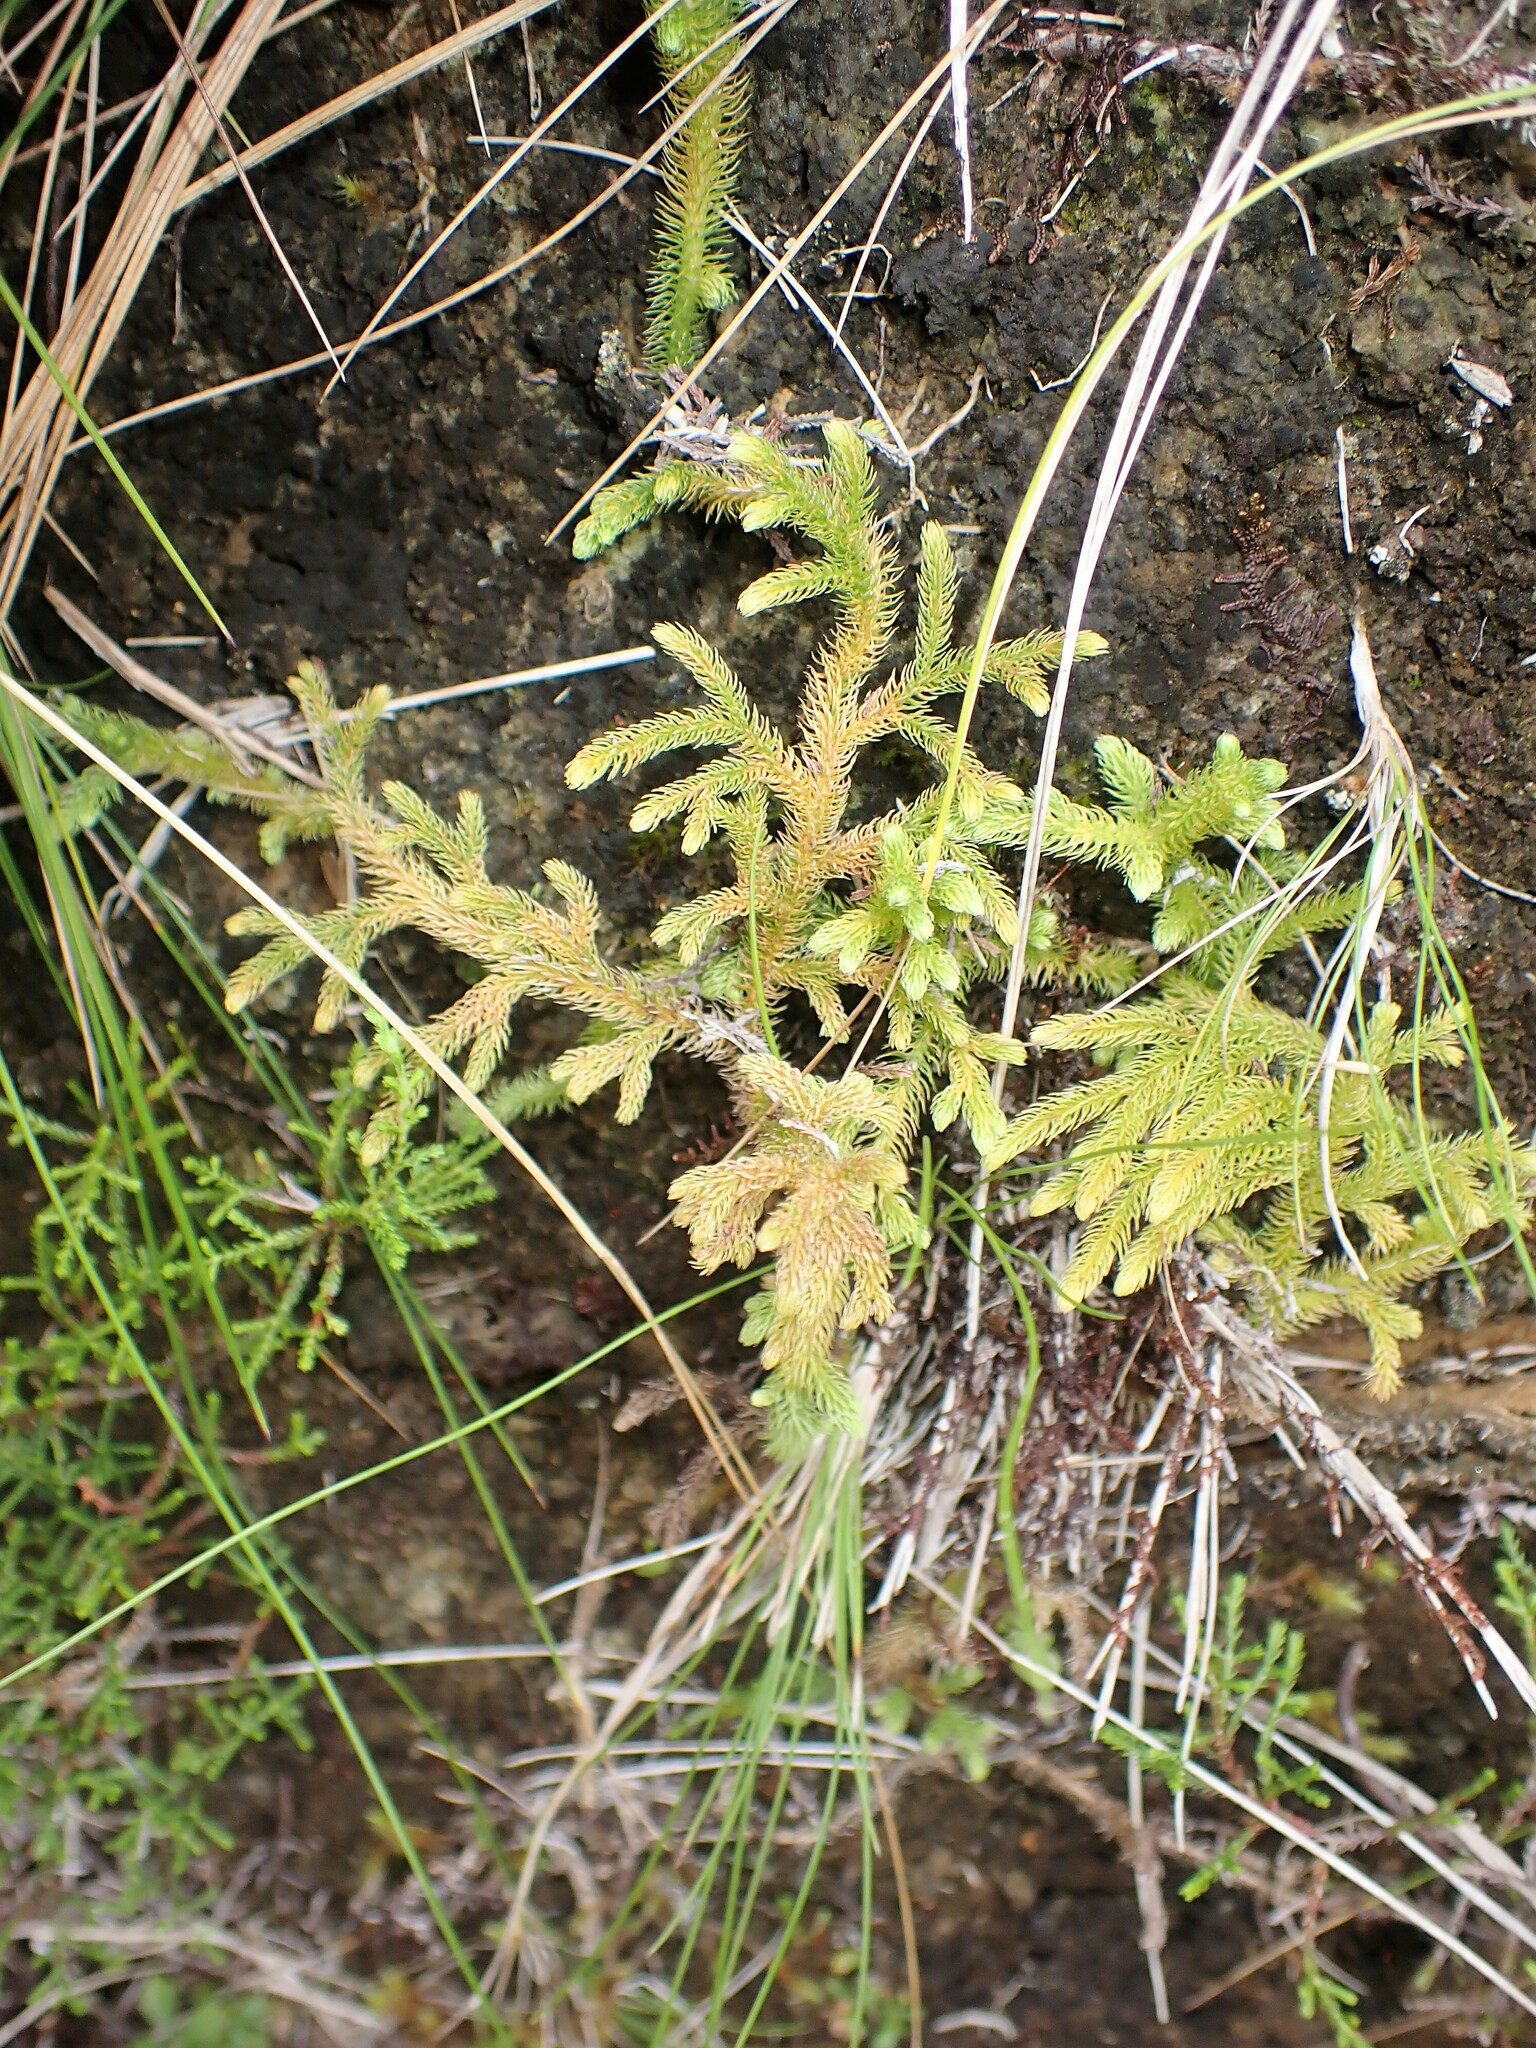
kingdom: Plantae
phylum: Tracheophyta
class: Lycopodiopsida
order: Lycopodiales
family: Lycopodiaceae
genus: Palhinhaea
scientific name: Palhinhaea cernua
